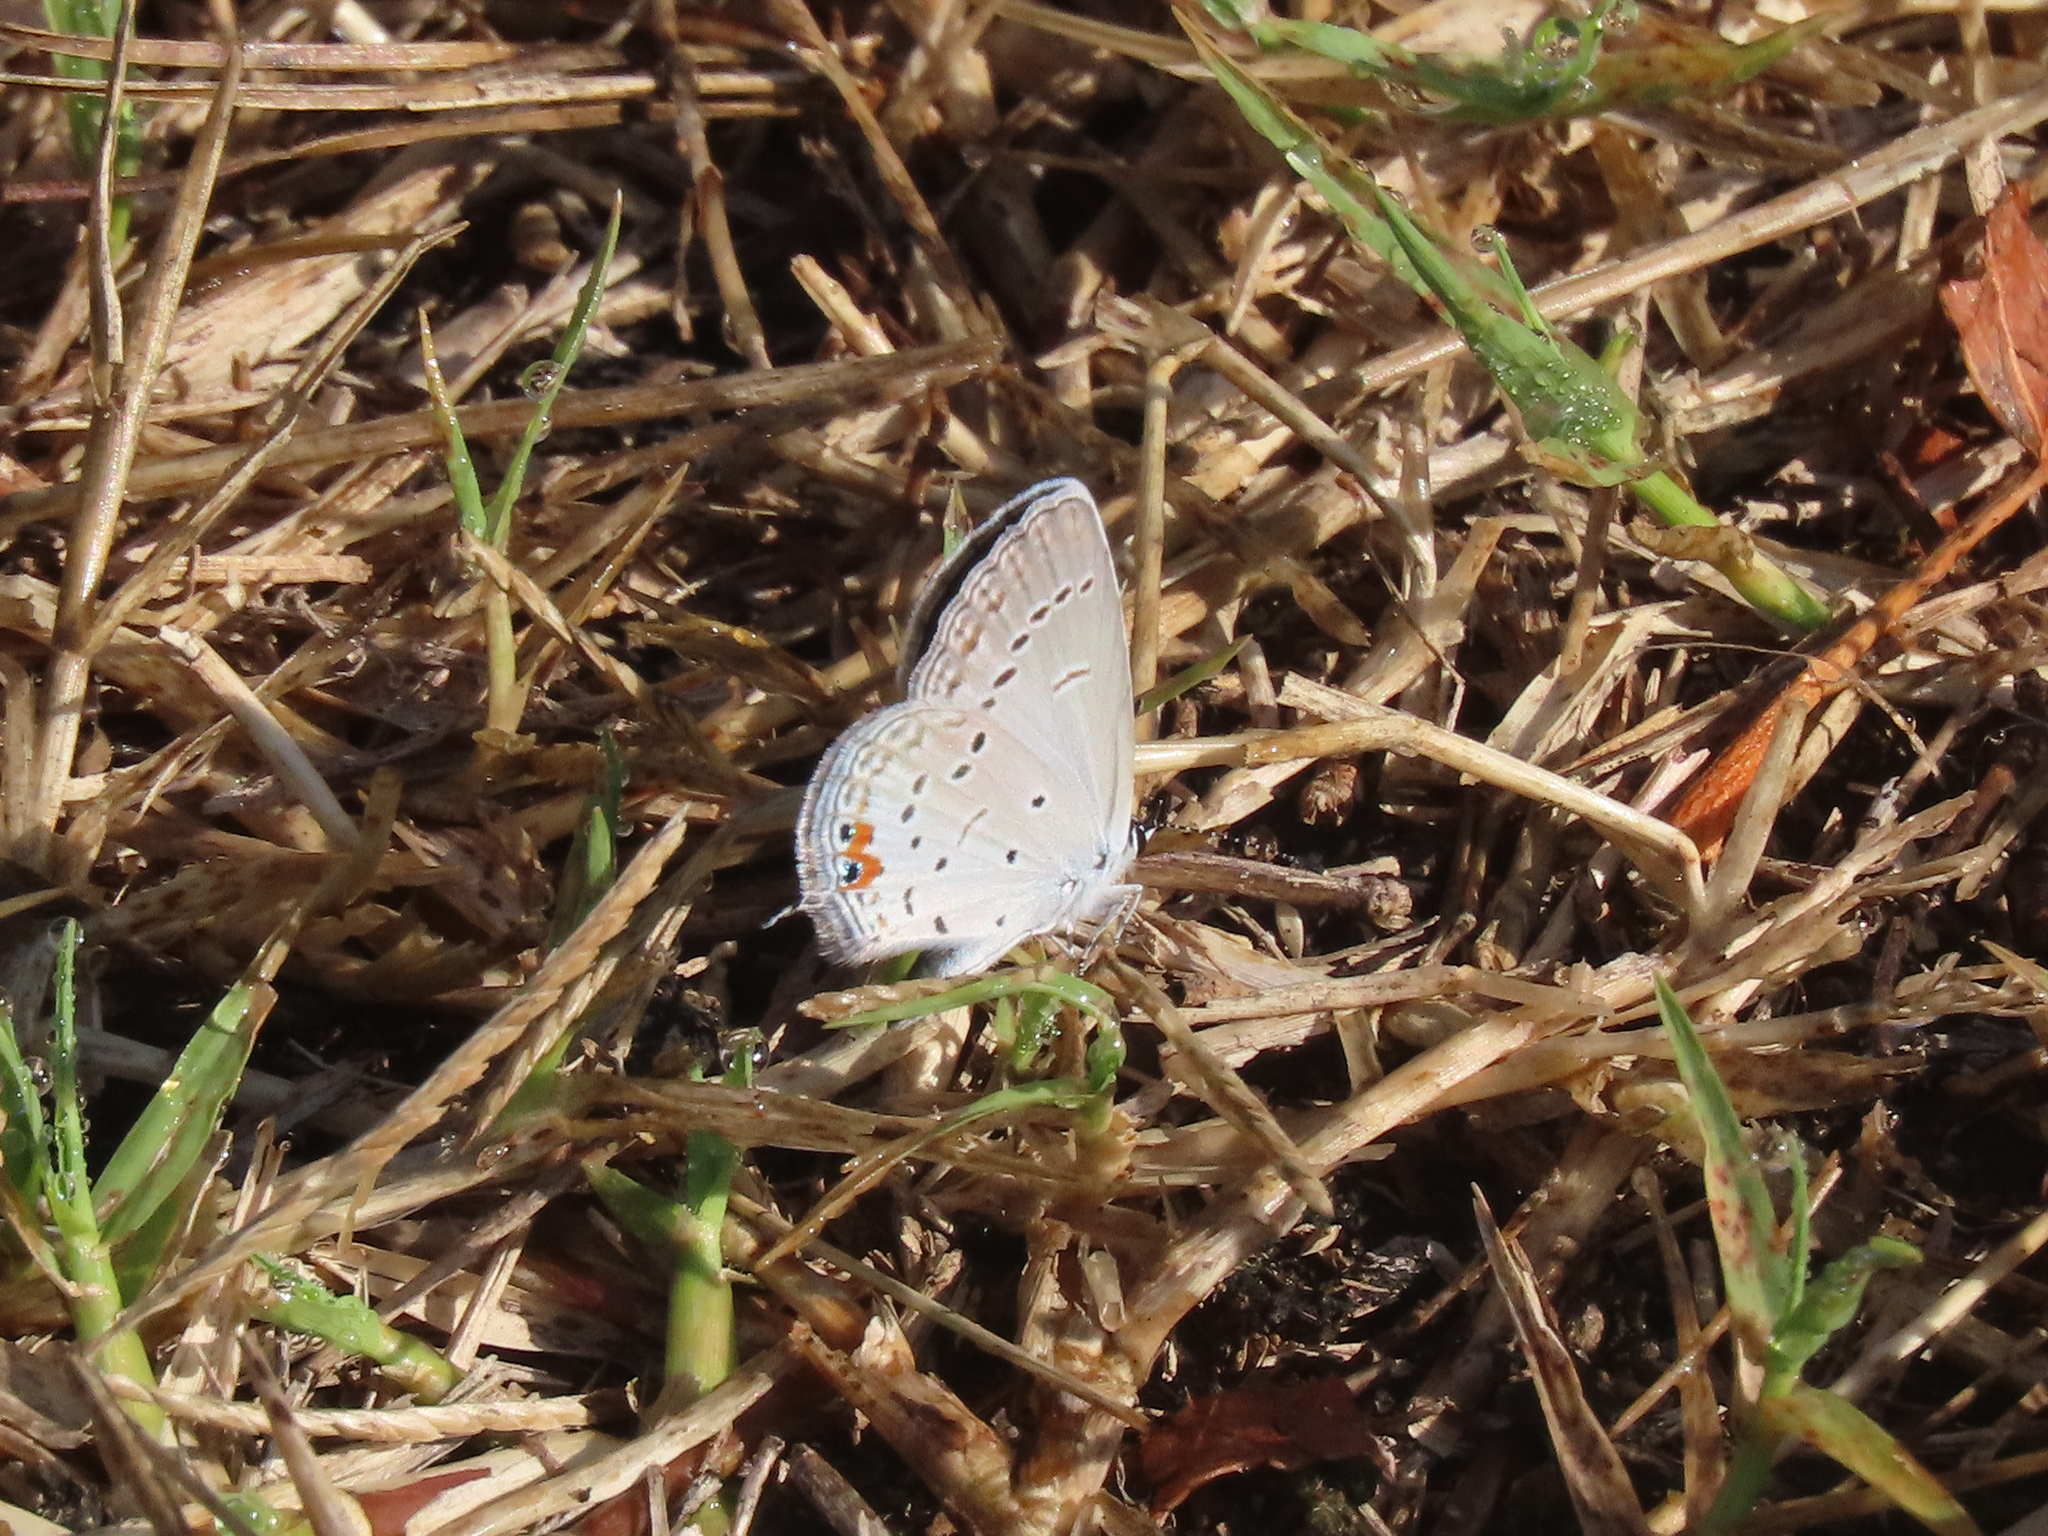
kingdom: Animalia
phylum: Arthropoda
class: Insecta
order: Lepidoptera
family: Lycaenidae
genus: Elkalyce
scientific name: Elkalyce comyntas
